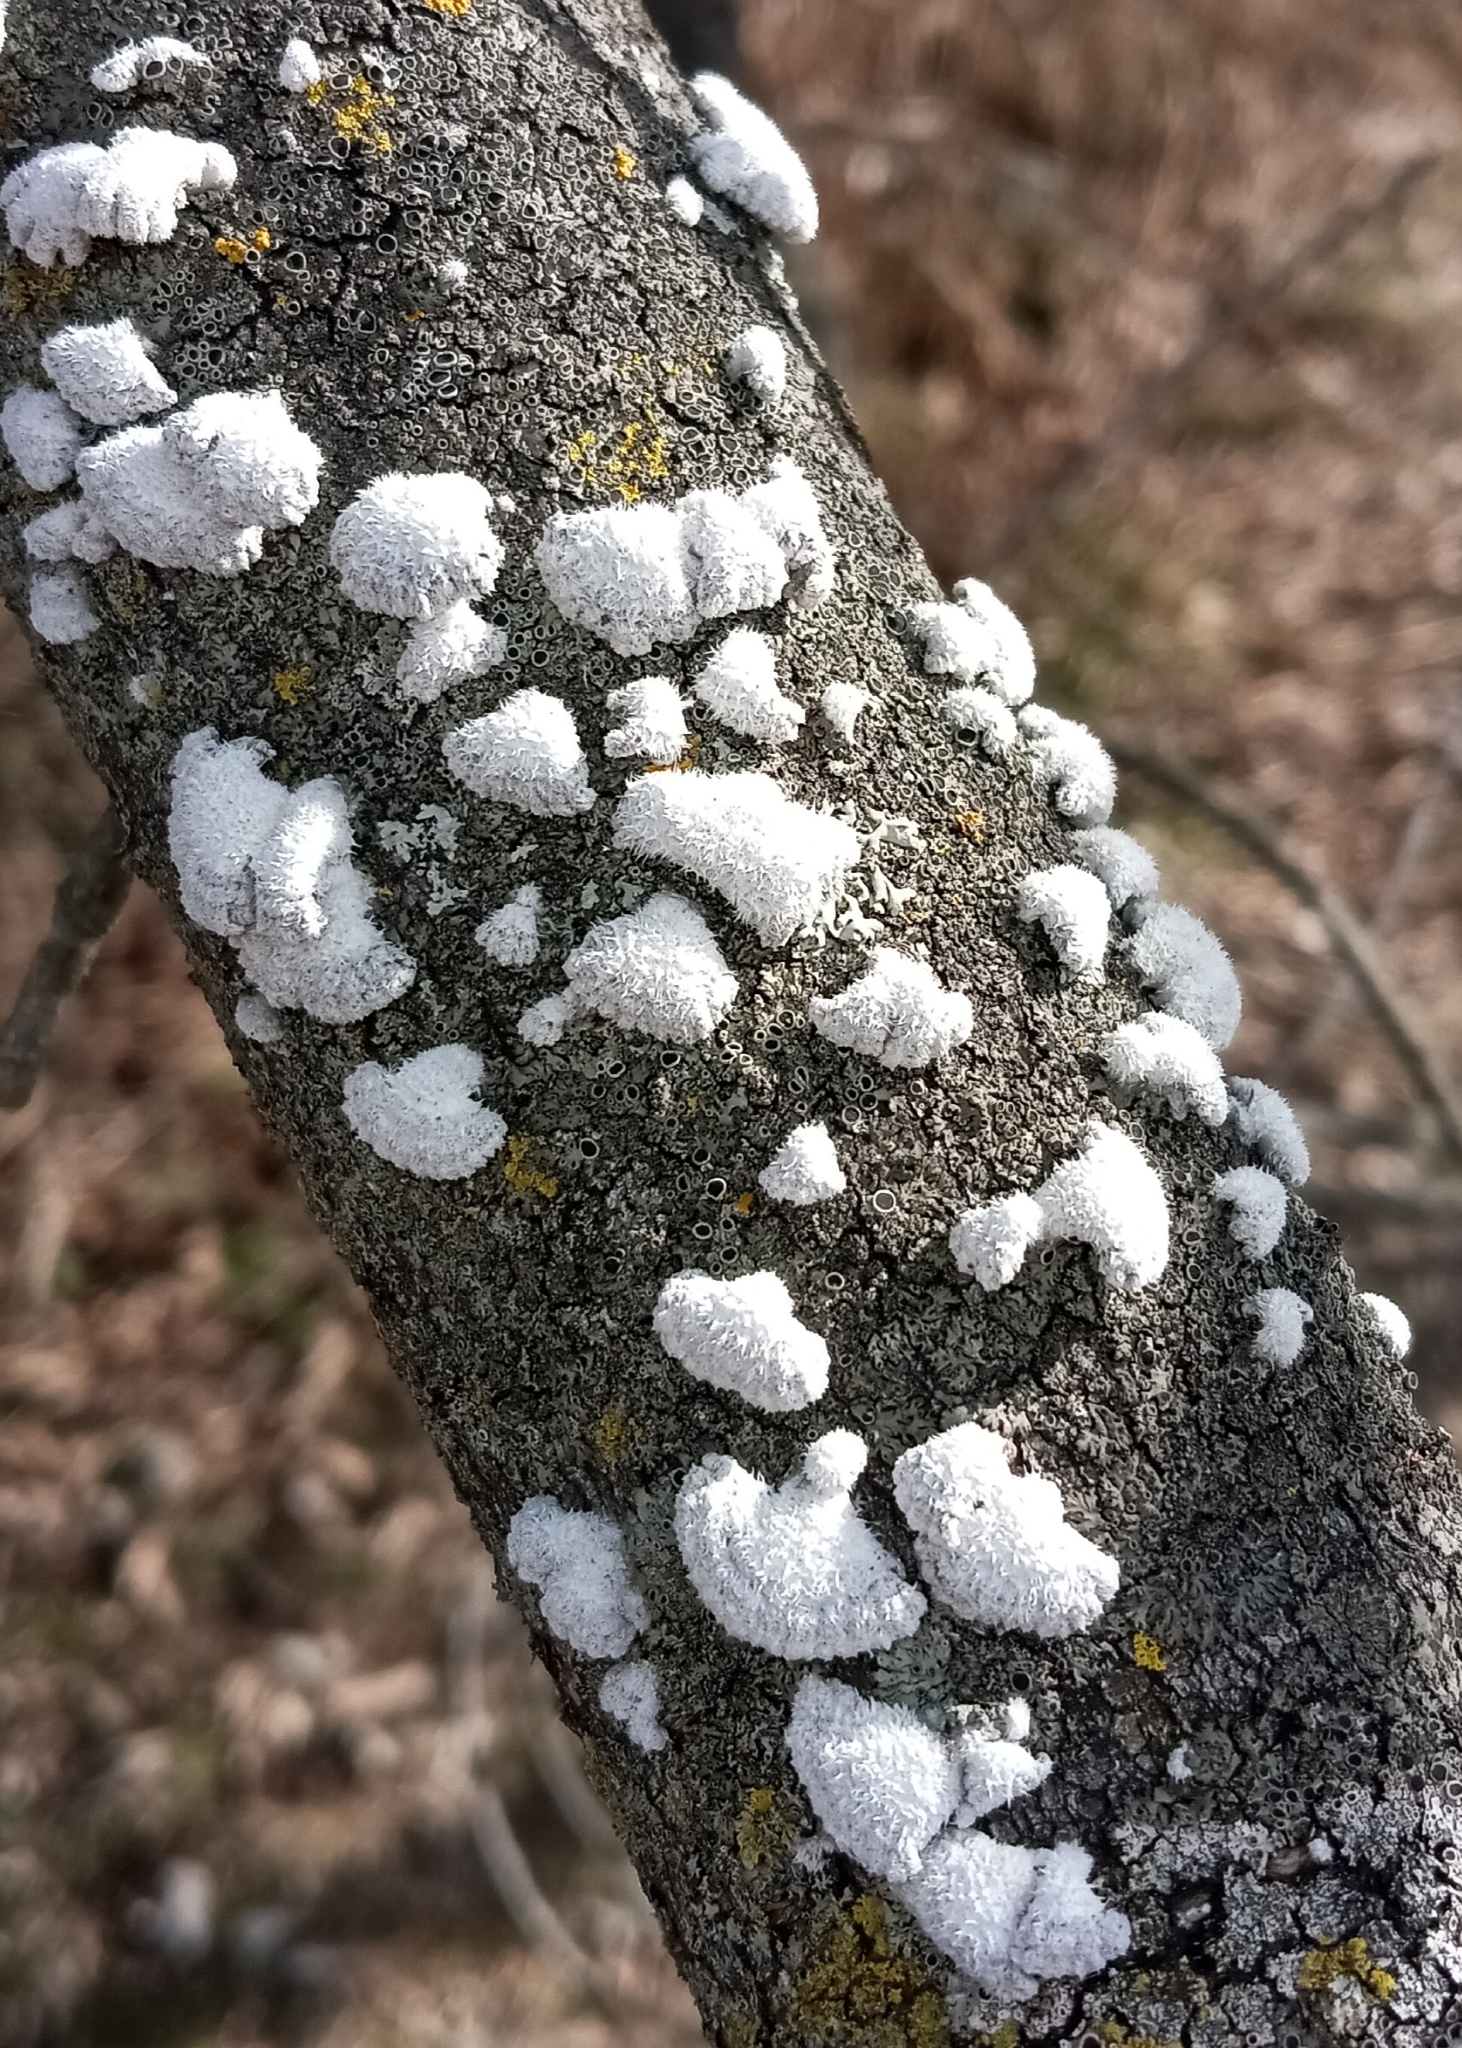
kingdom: Fungi
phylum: Basidiomycota
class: Agaricomycetes
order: Agaricales
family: Schizophyllaceae
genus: Schizophyllum
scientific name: Schizophyllum commune
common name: Common porecrust
